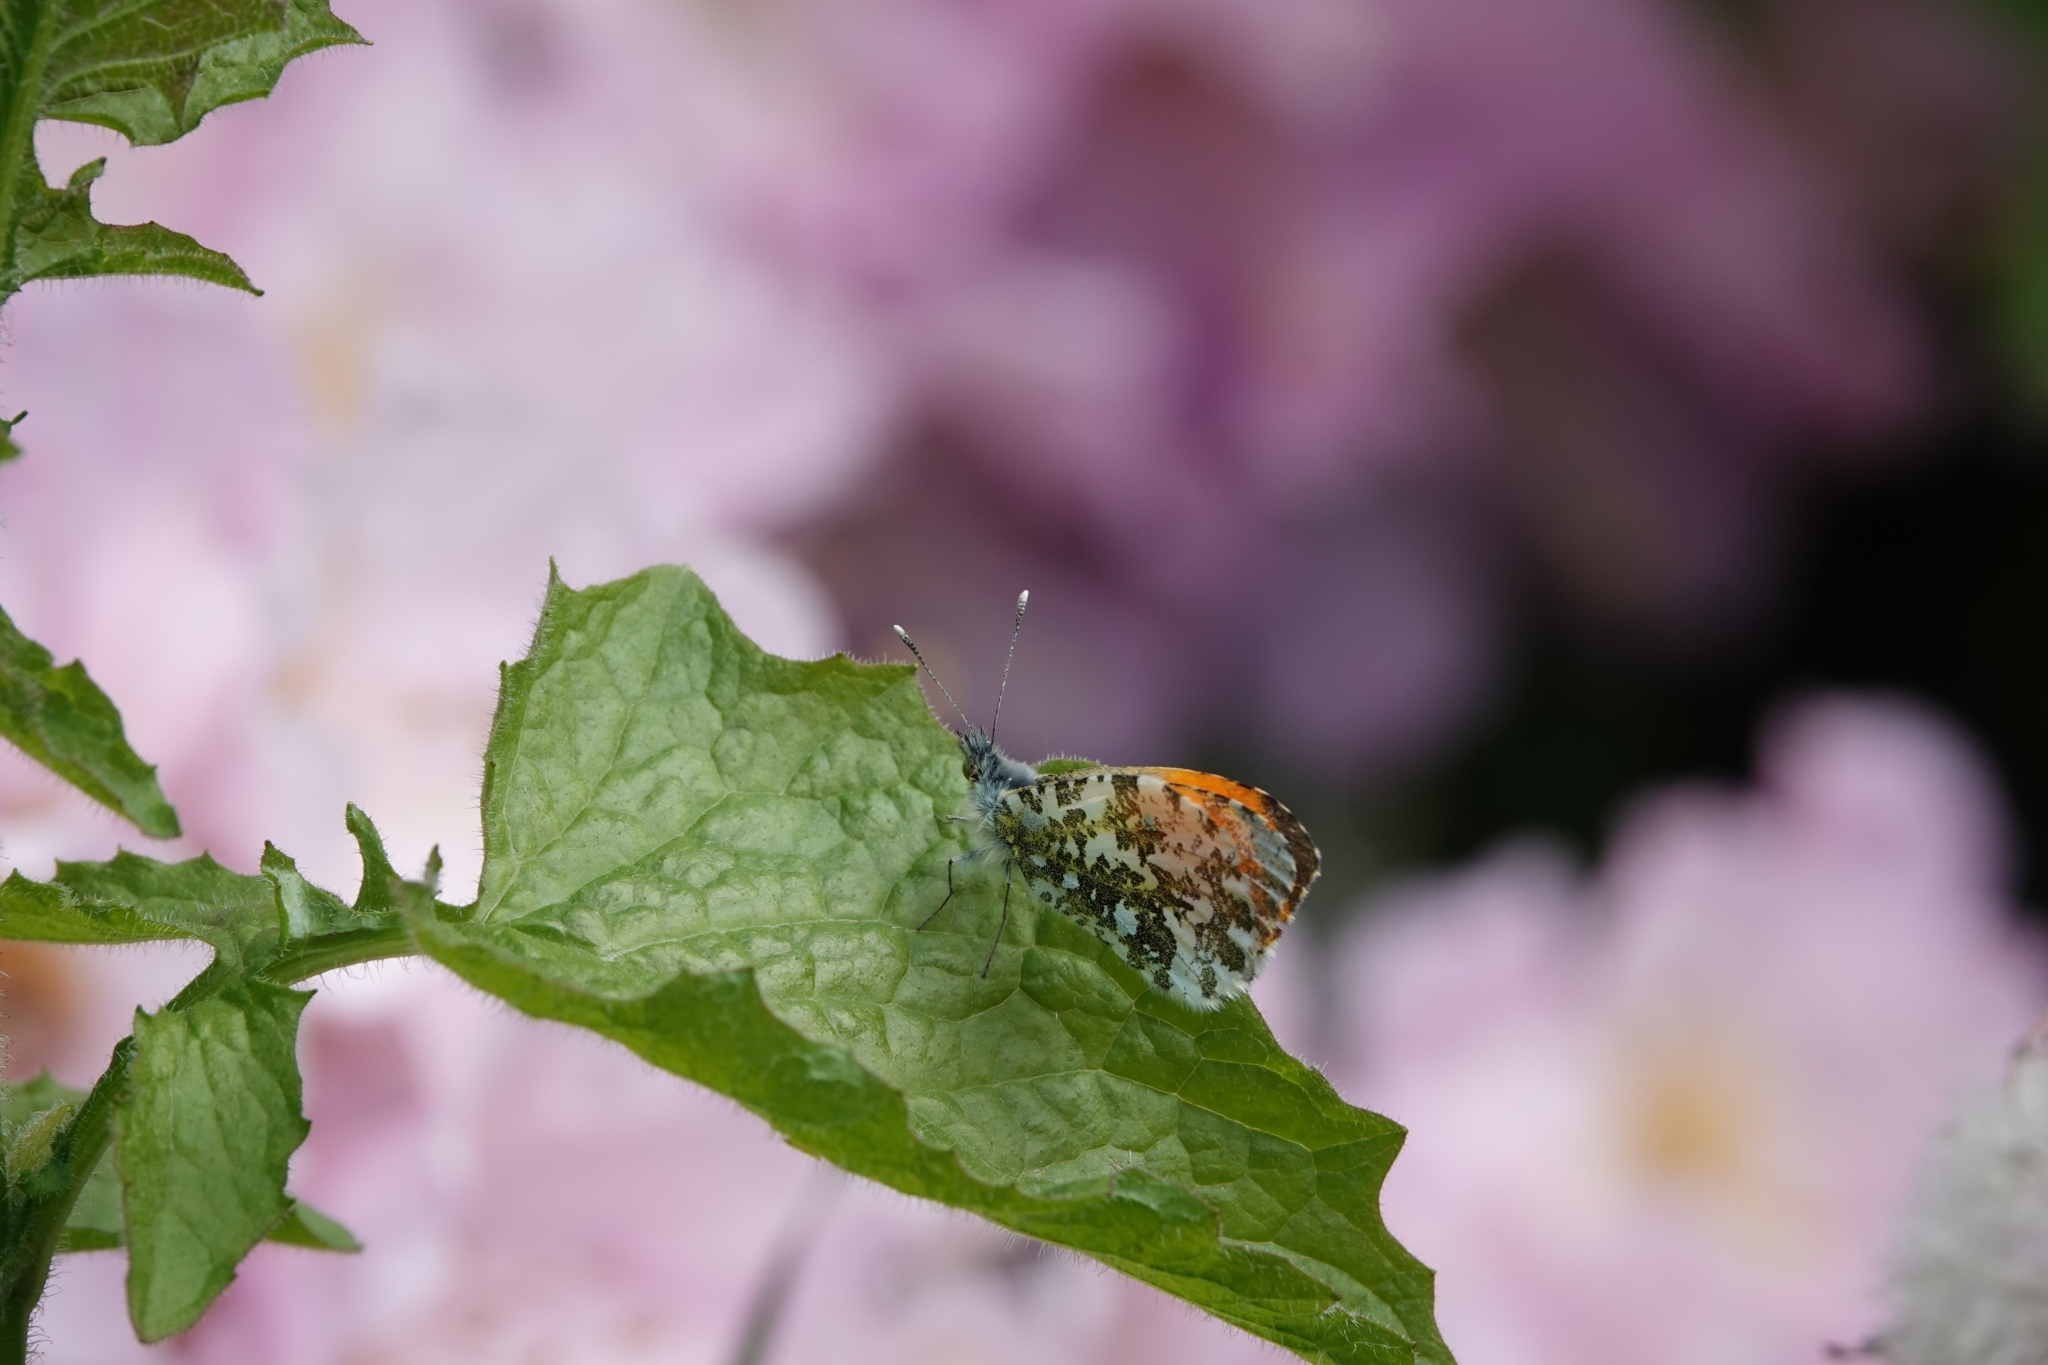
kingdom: Animalia
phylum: Arthropoda
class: Insecta
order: Lepidoptera
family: Pieridae
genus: Anthocharis
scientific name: Anthocharis cardamines
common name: Orange-tip
